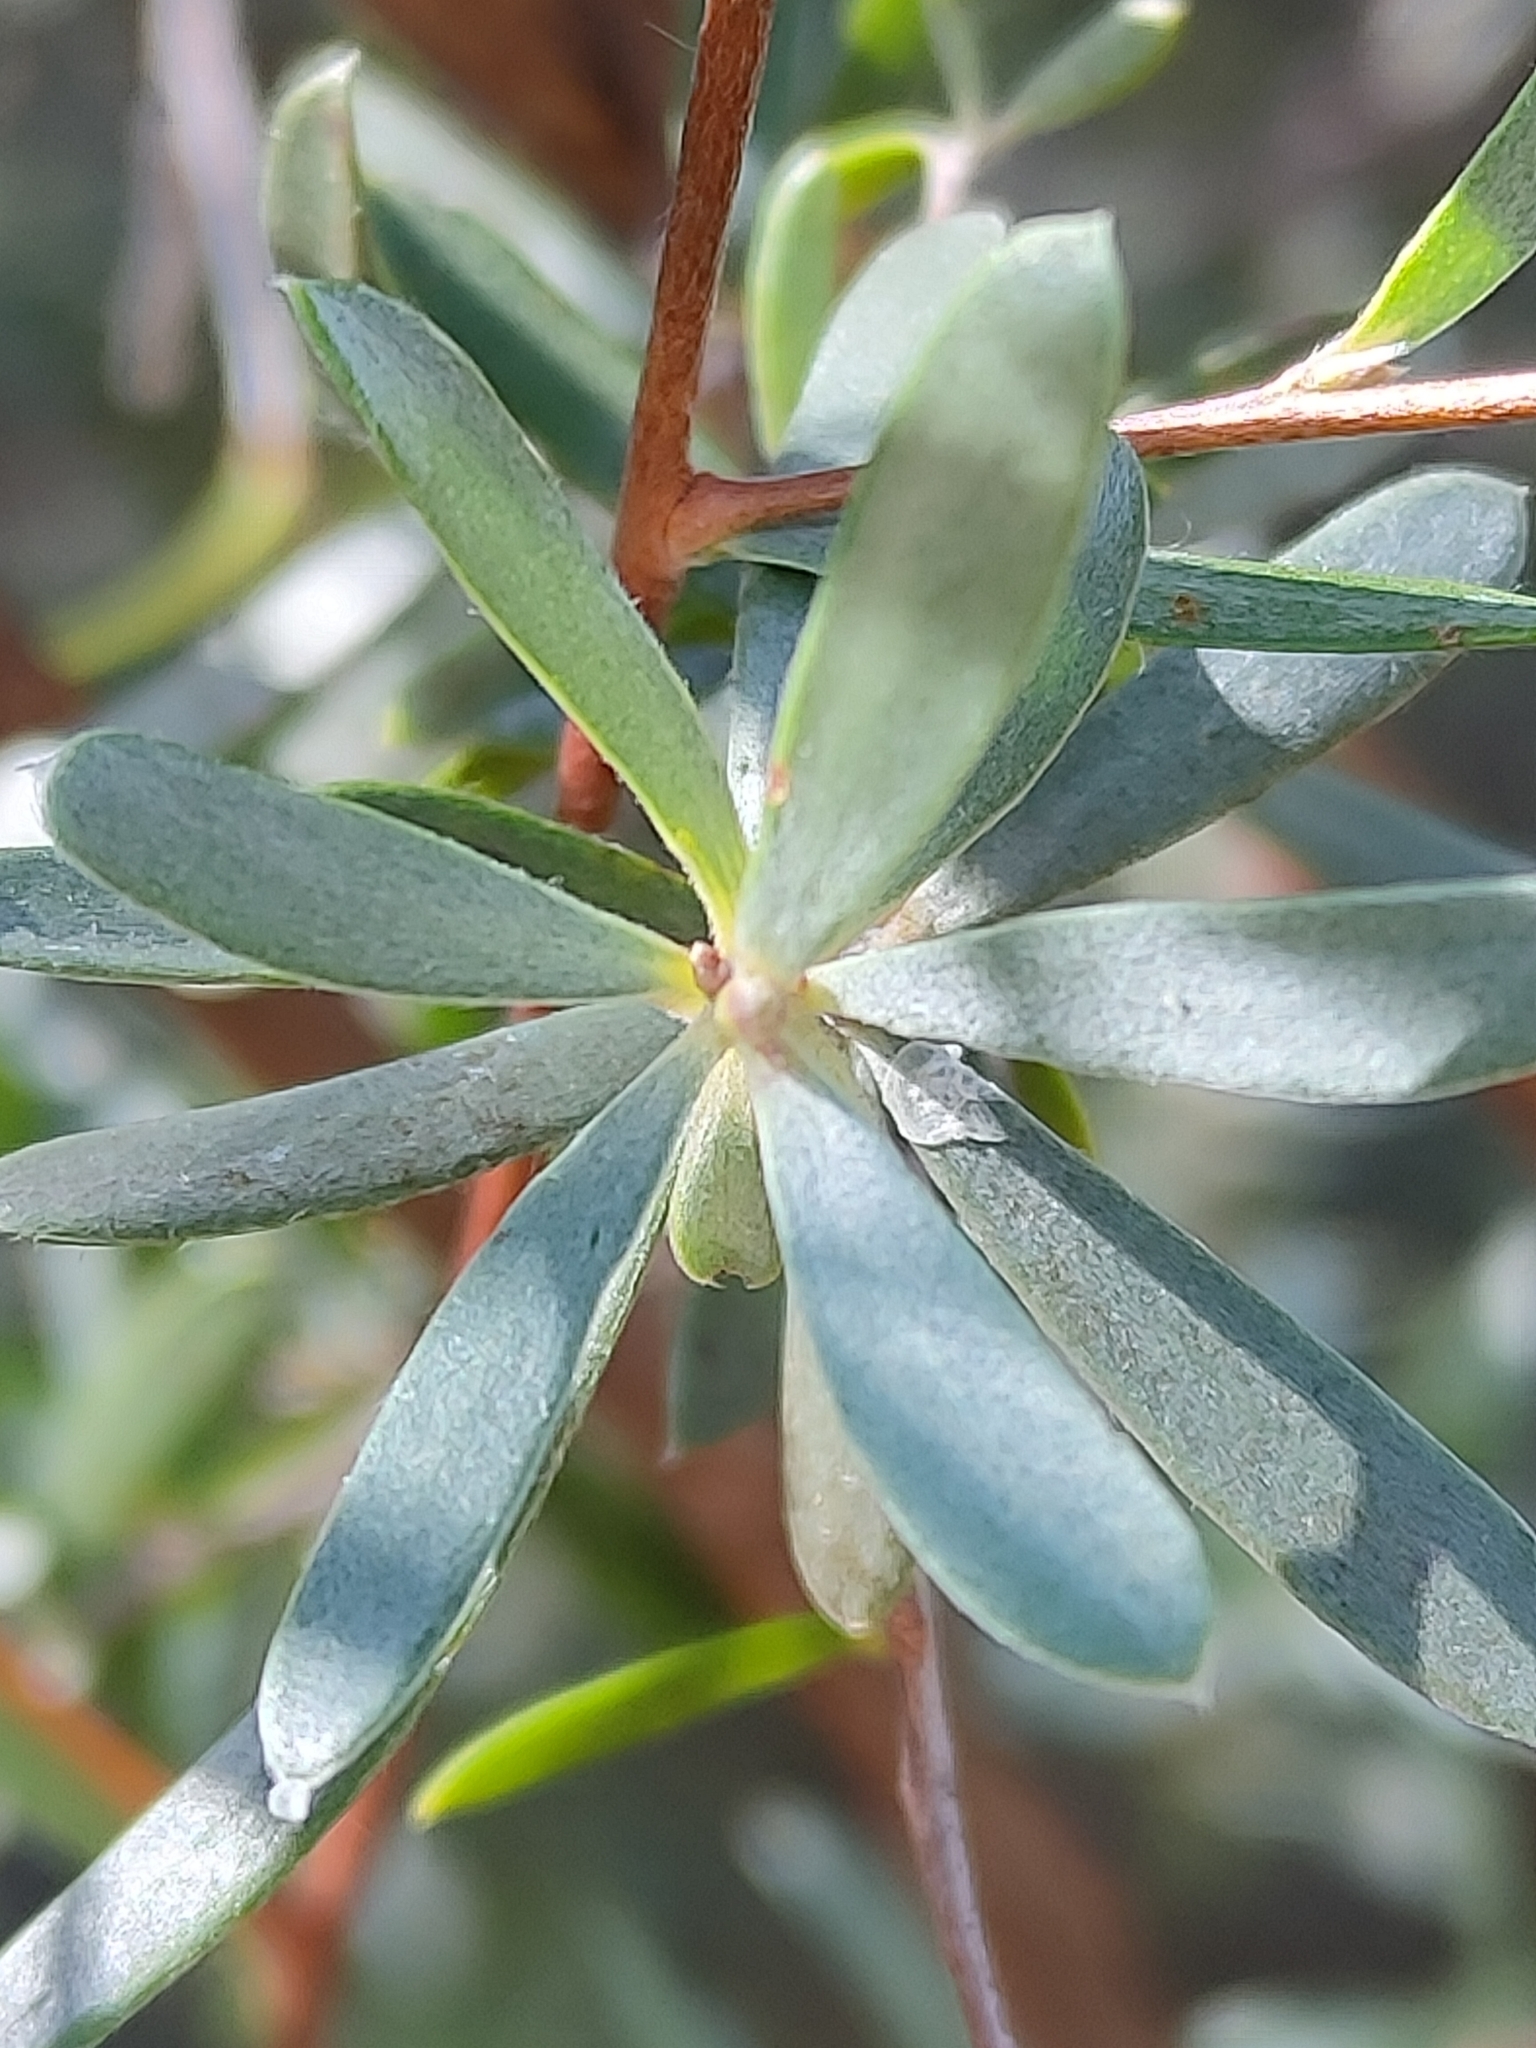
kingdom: Plantae
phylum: Tracheophyta
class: Magnoliopsida
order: Myrtales
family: Myrtaceae
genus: Leptospermum
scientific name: Leptospermum brevipes
